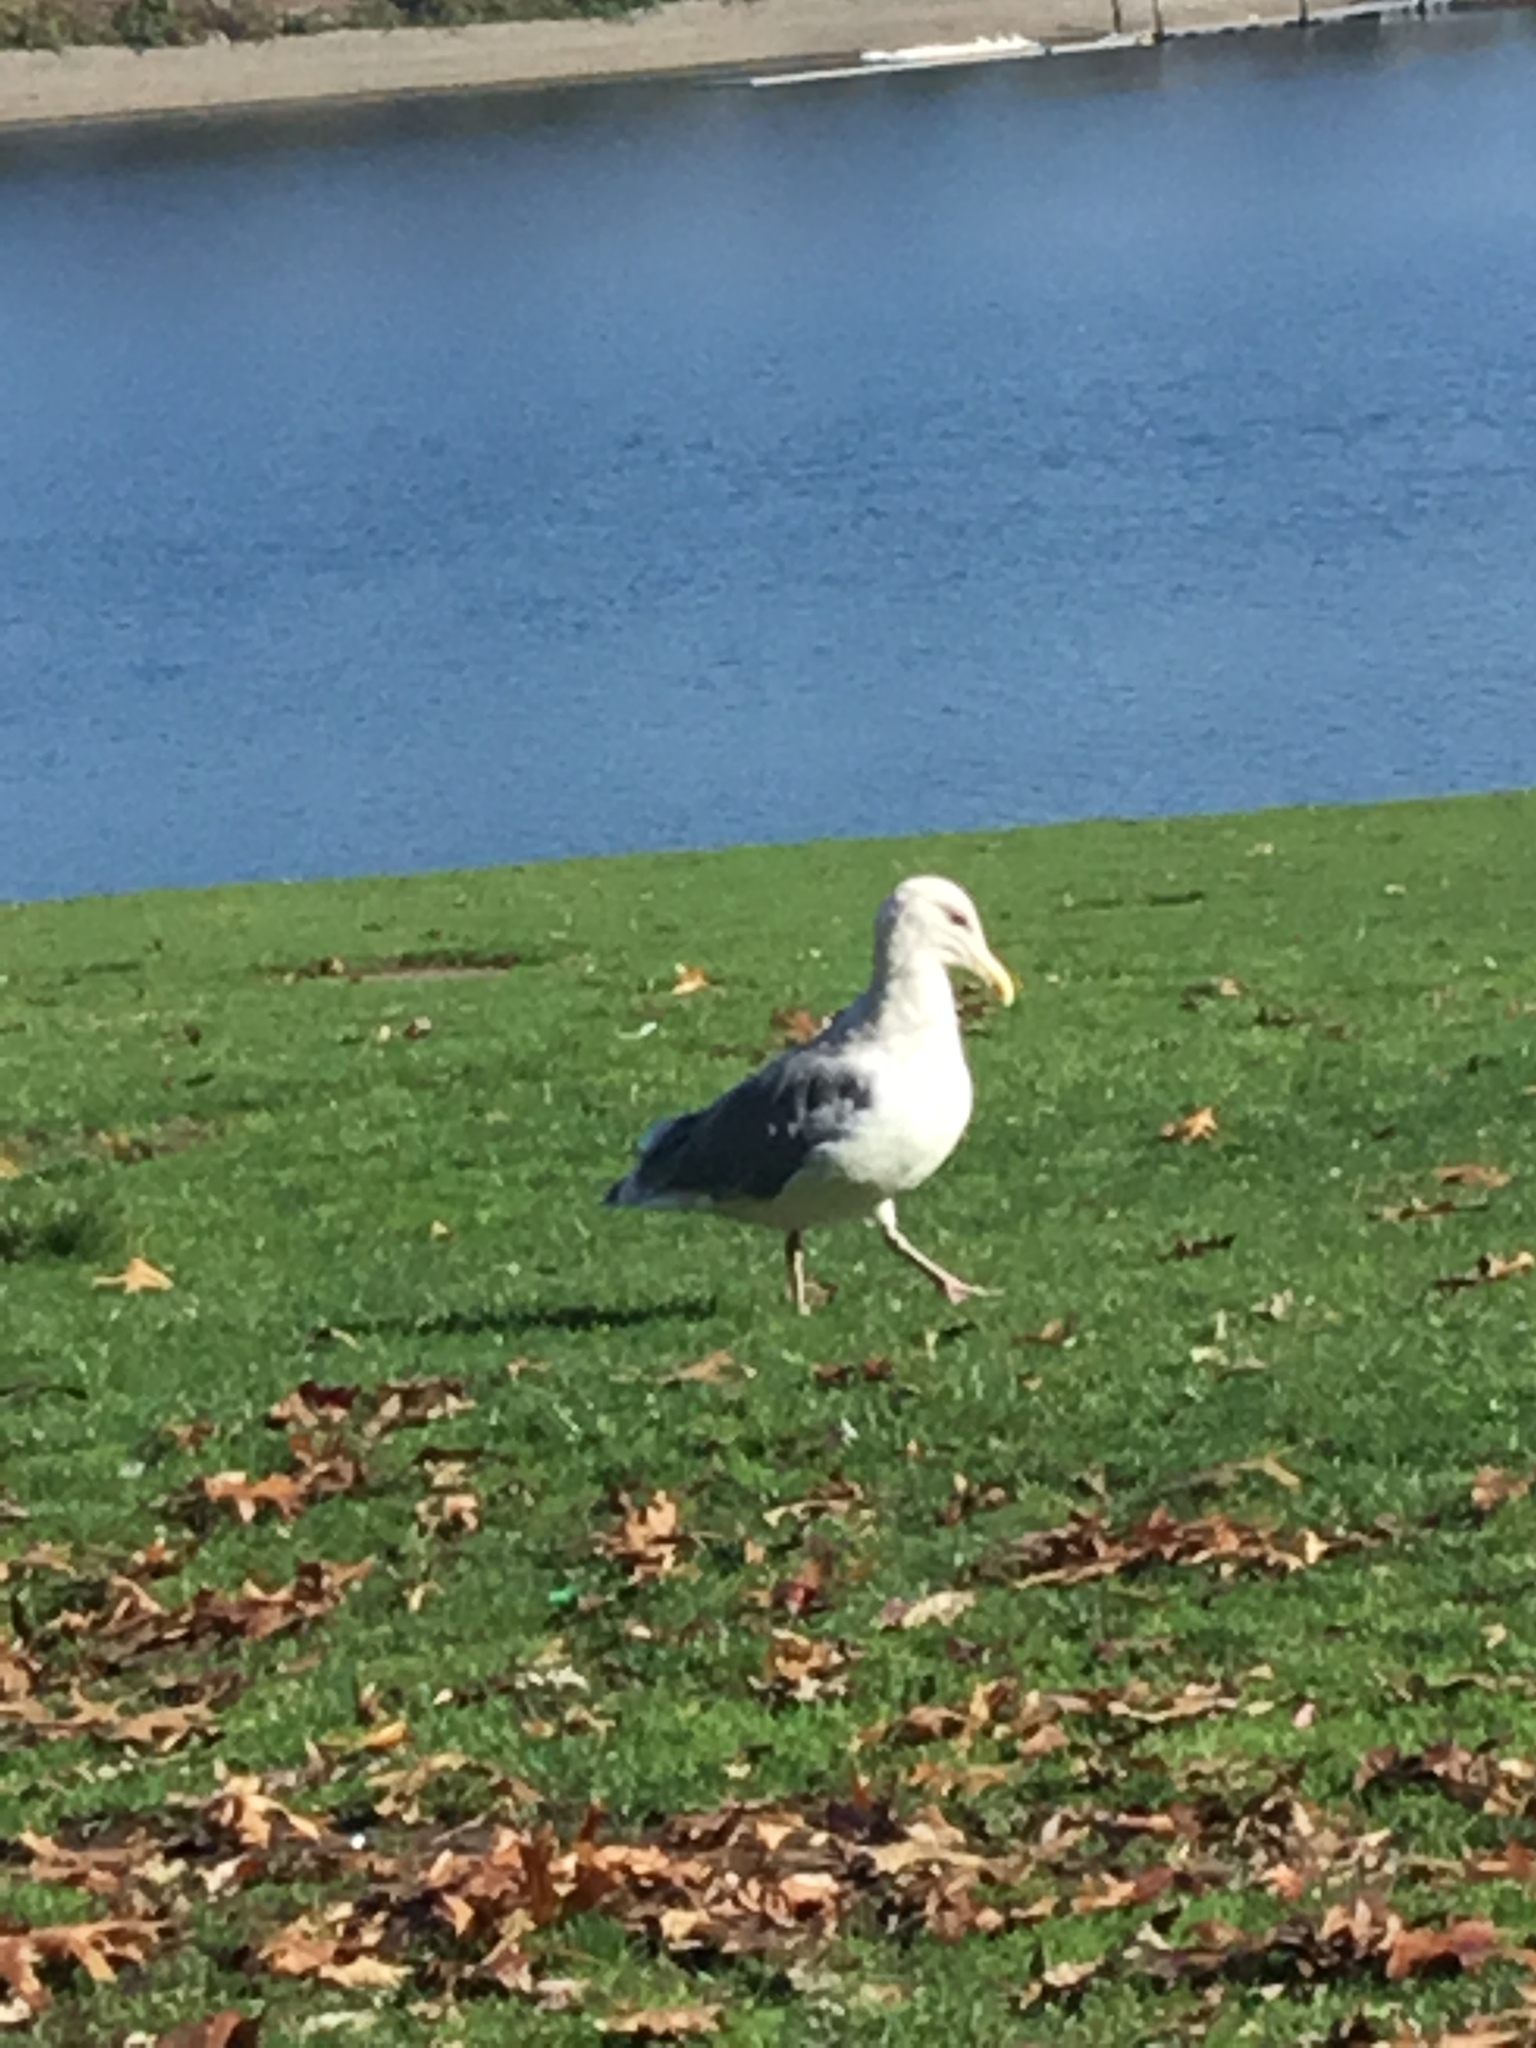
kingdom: Animalia
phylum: Chordata
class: Aves
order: Charadriiformes
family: Laridae
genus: Larus
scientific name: Larus glaucescens
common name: Glaucous-winged gull
